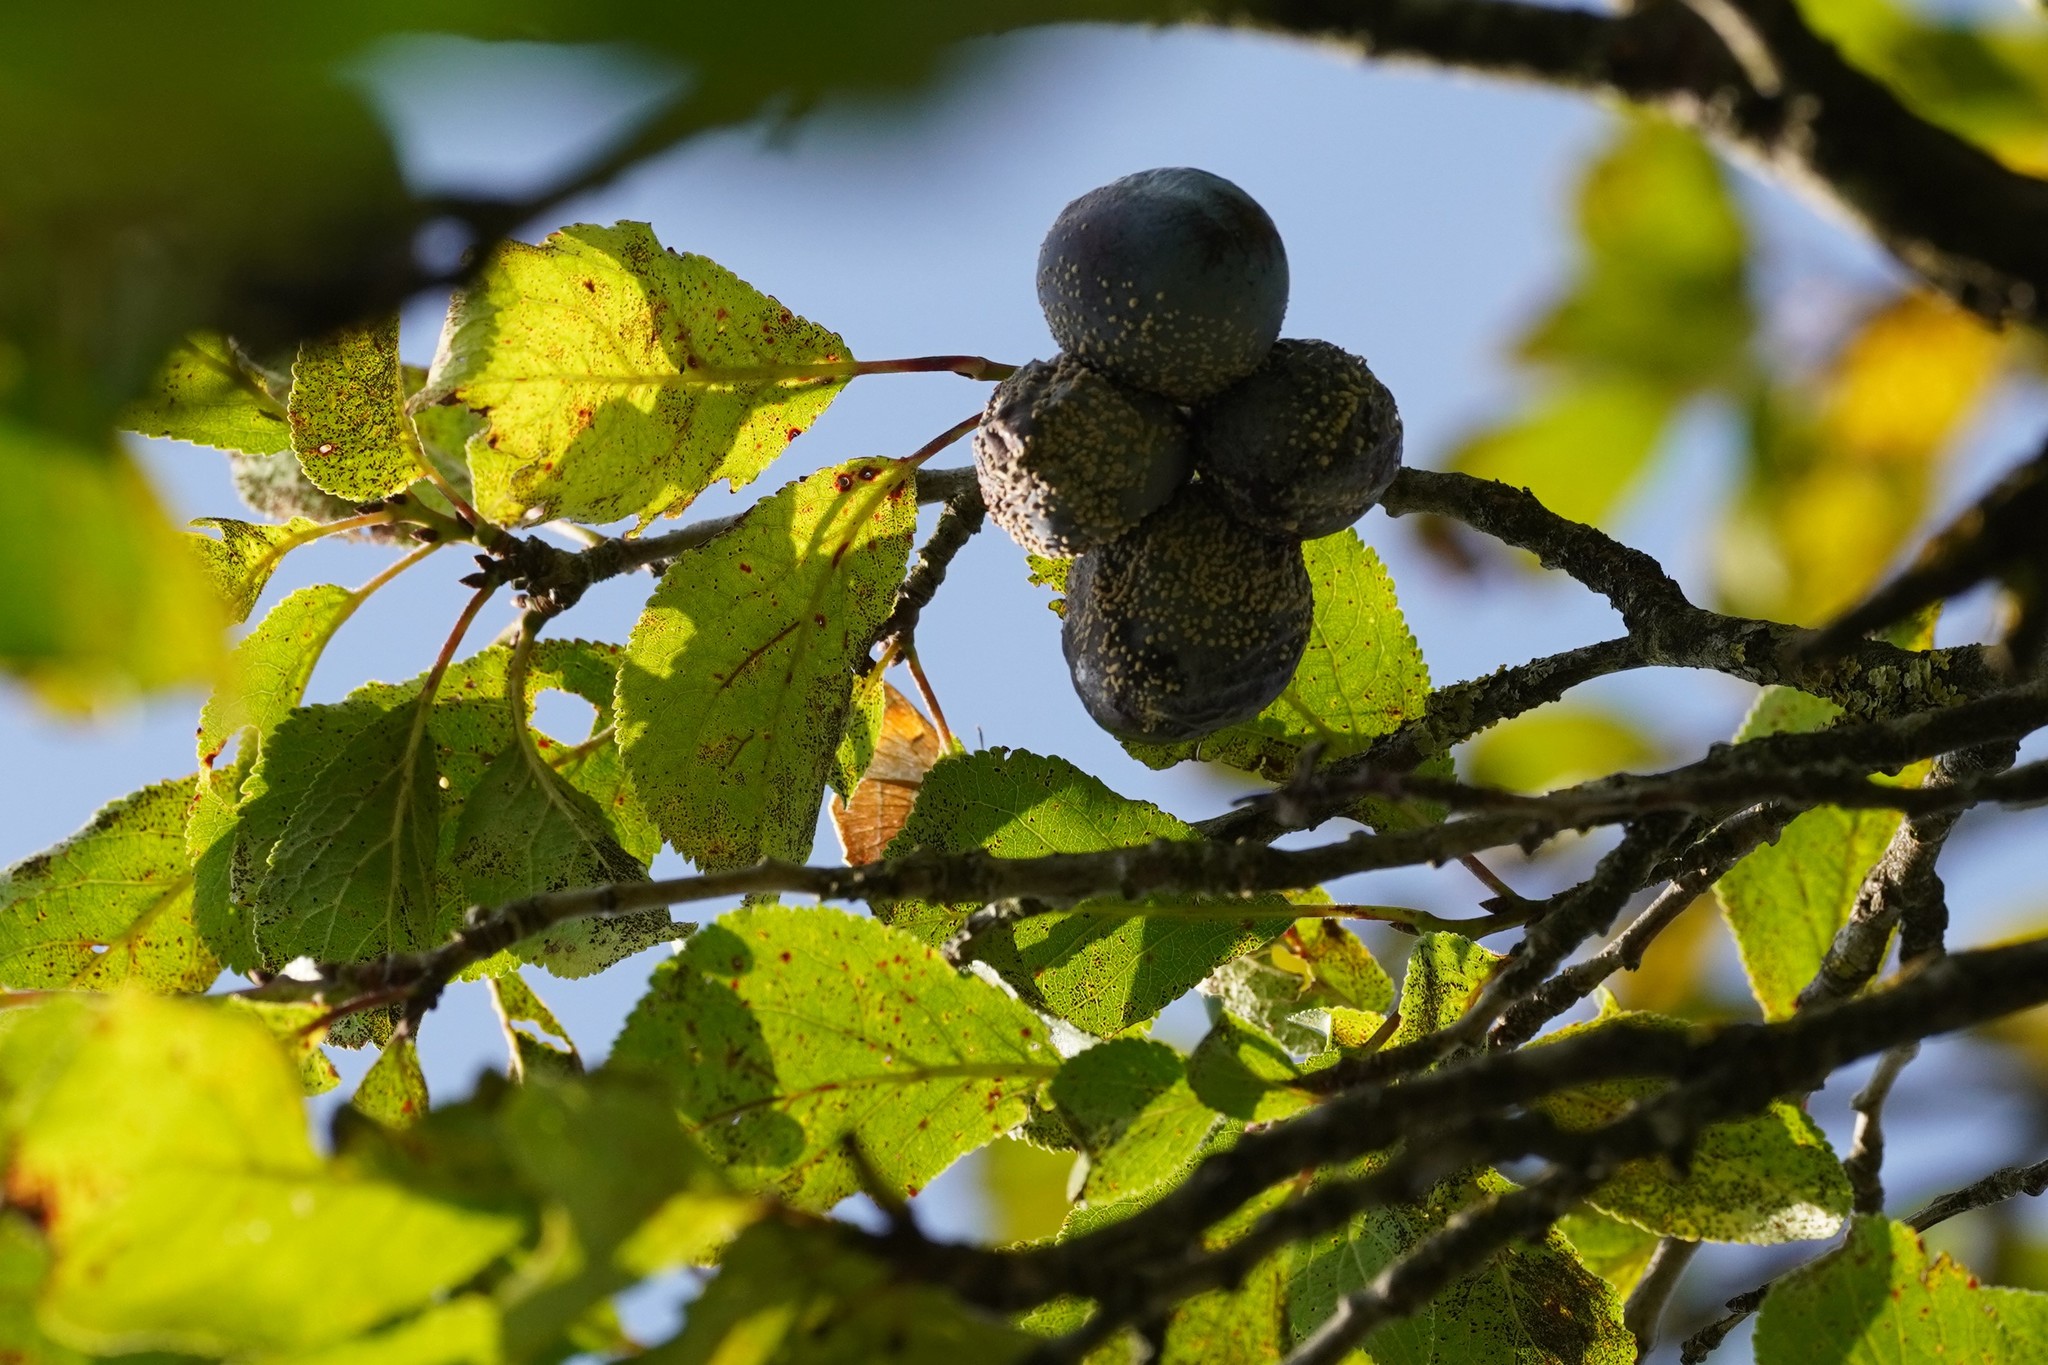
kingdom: Animalia
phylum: Arthropoda
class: Insecta
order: Lepidoptera
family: Lycaenidae
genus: Thecla
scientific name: Thecla betulae
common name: Brown hairstreak
